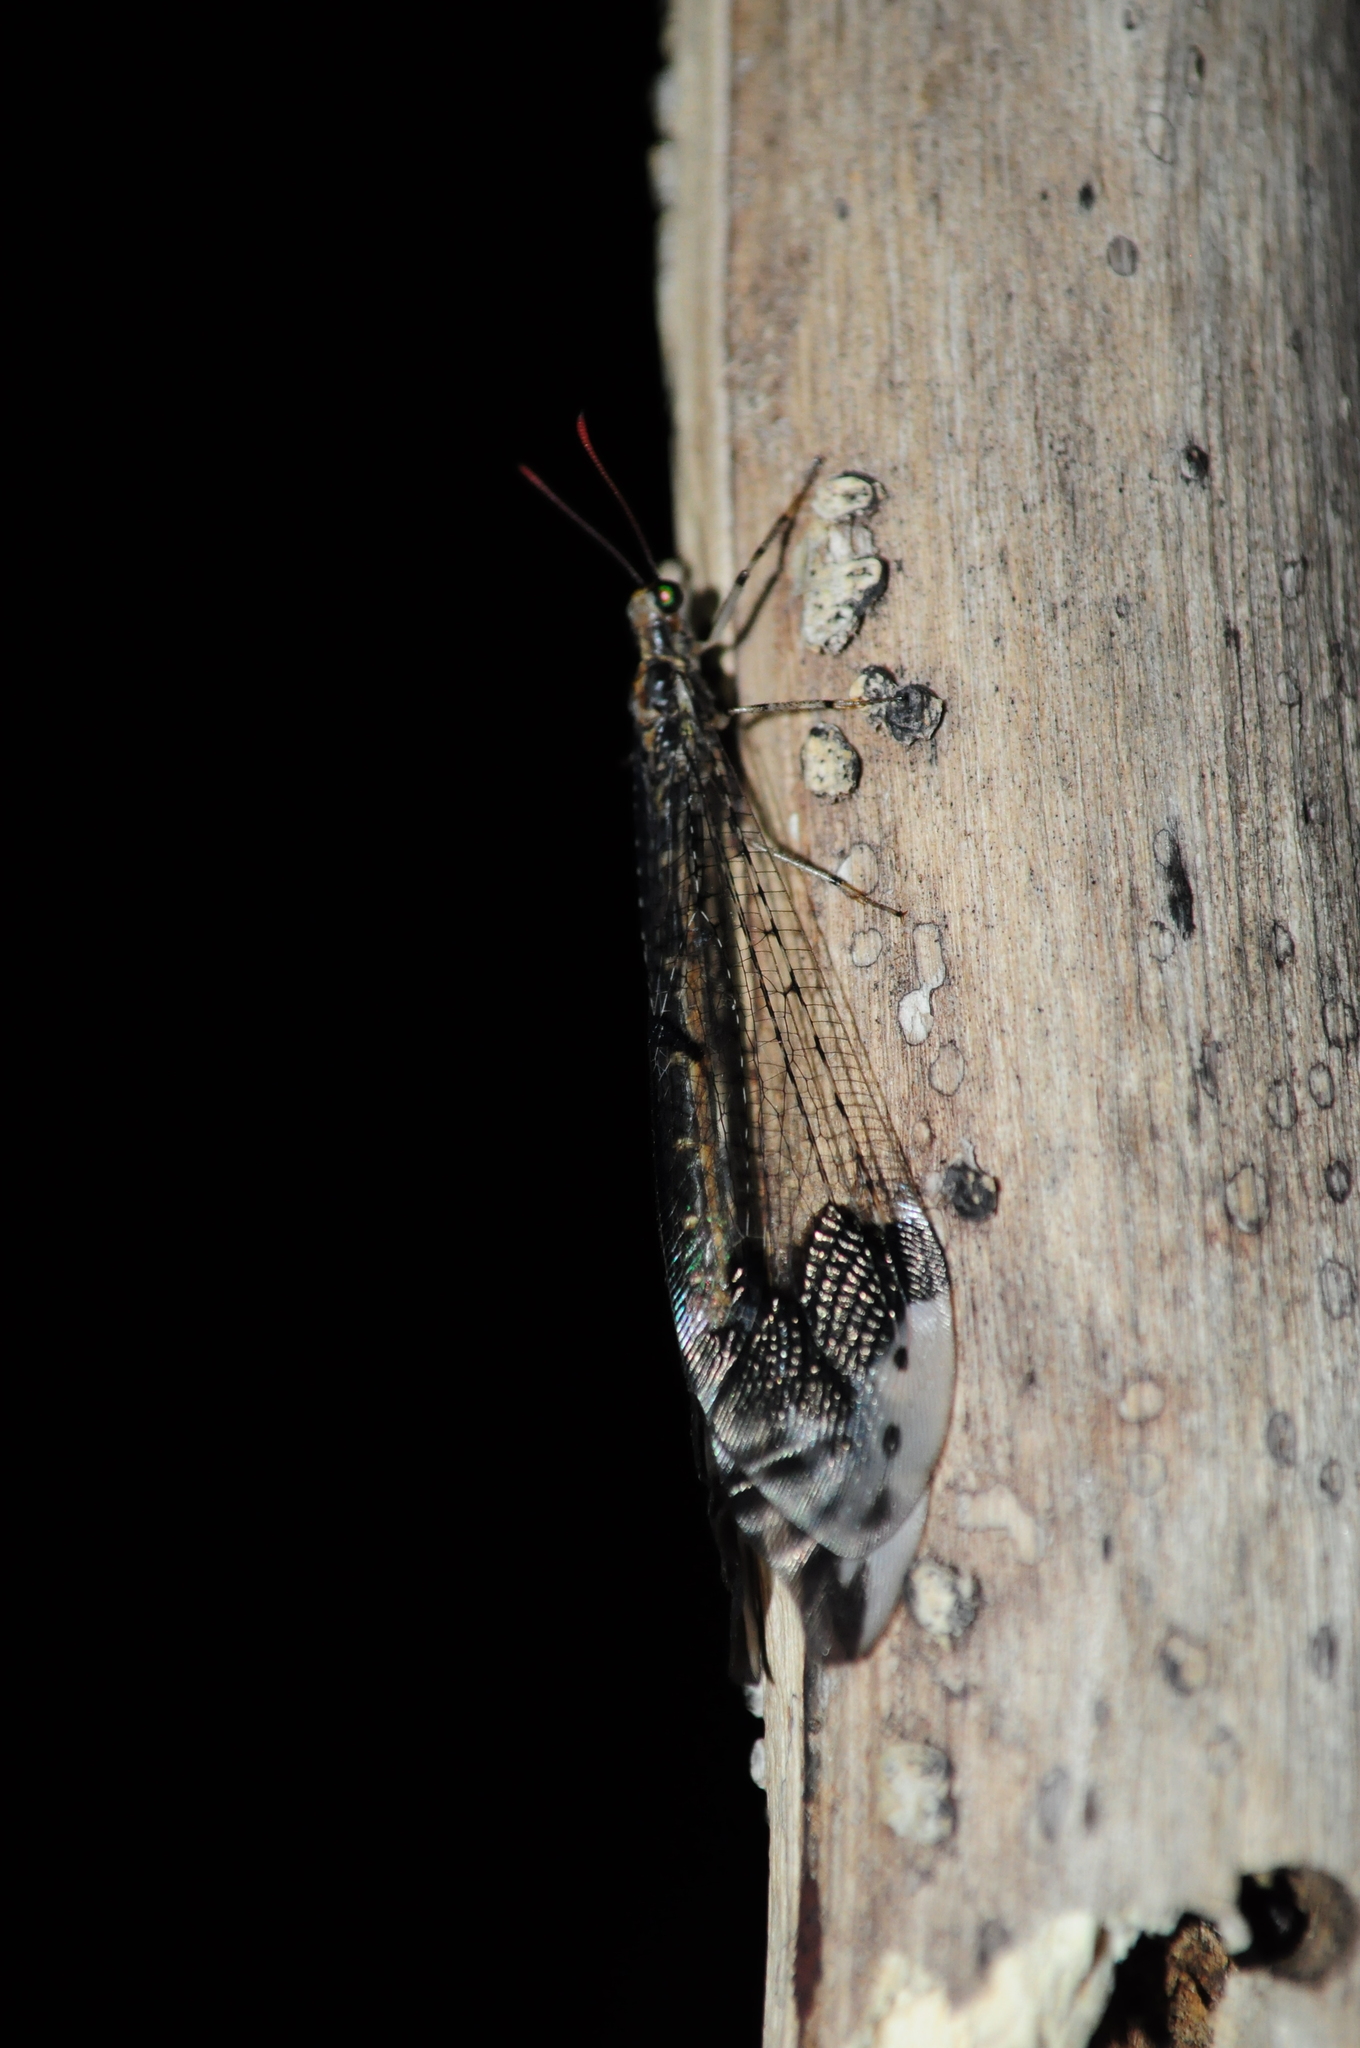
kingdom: Animalia
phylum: Arthropoda
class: Insecta
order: Neuroptera
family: Myrmeleontidae
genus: Glenurus
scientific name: Glenurus incalis
